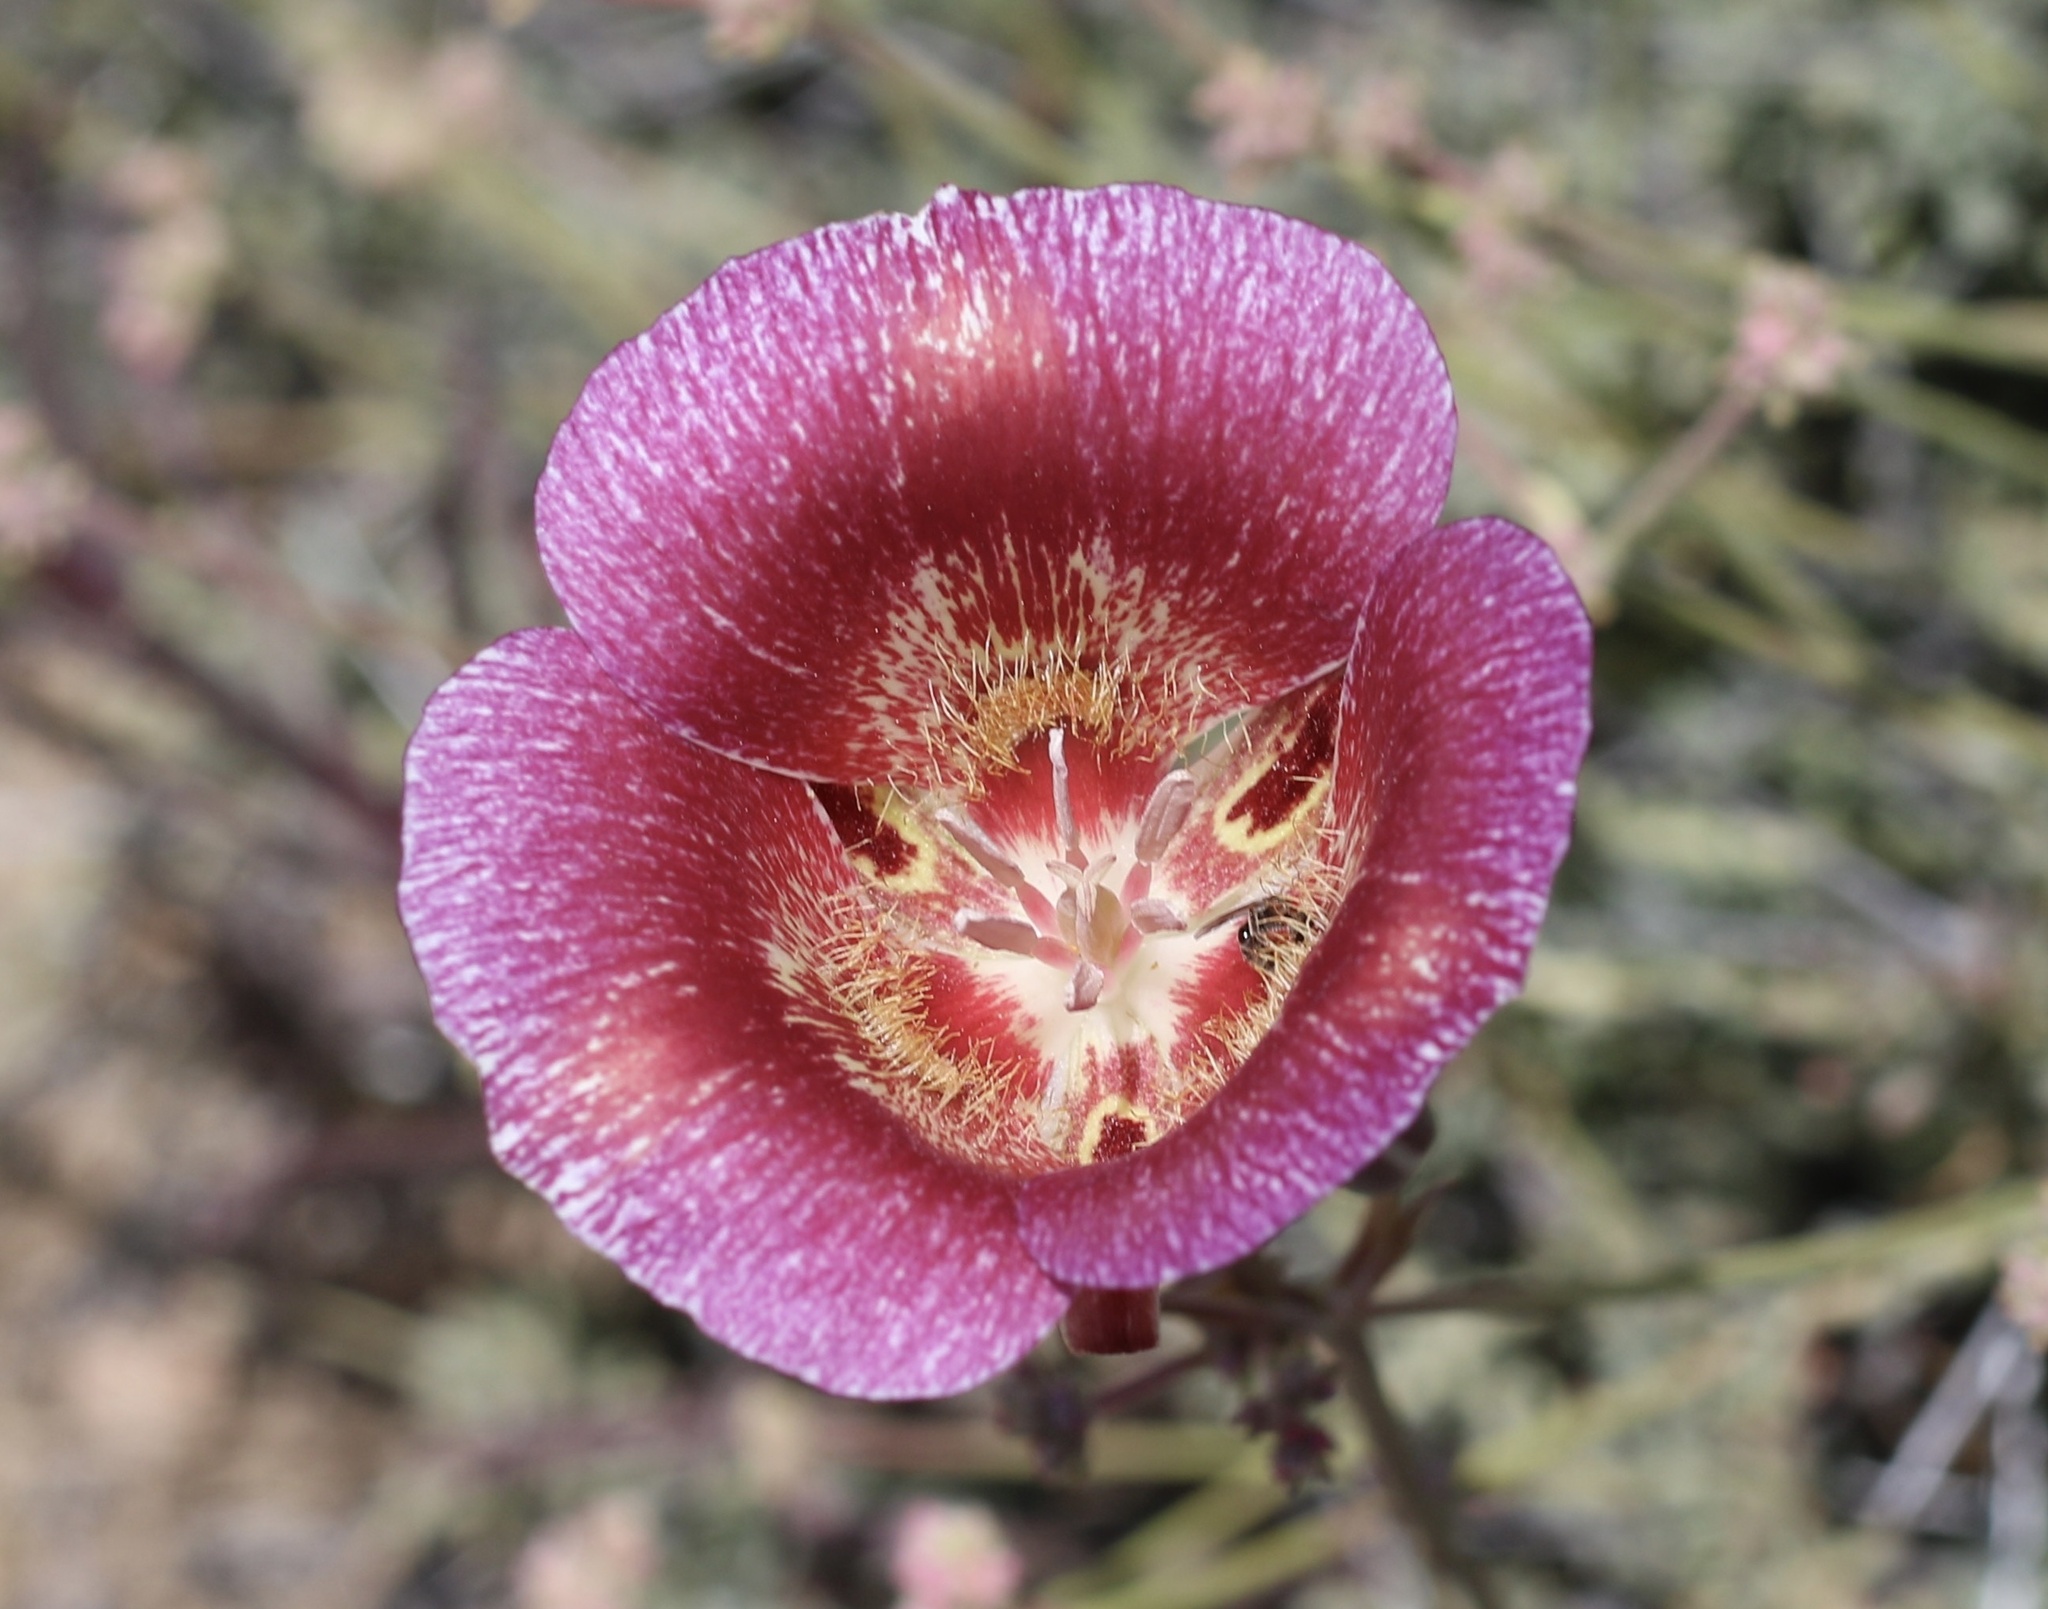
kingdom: Plantae
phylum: Tracheophyta
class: Liliopsida
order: Liliales
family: Liliaceae
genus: Calochortus
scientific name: Calochortus venustus
